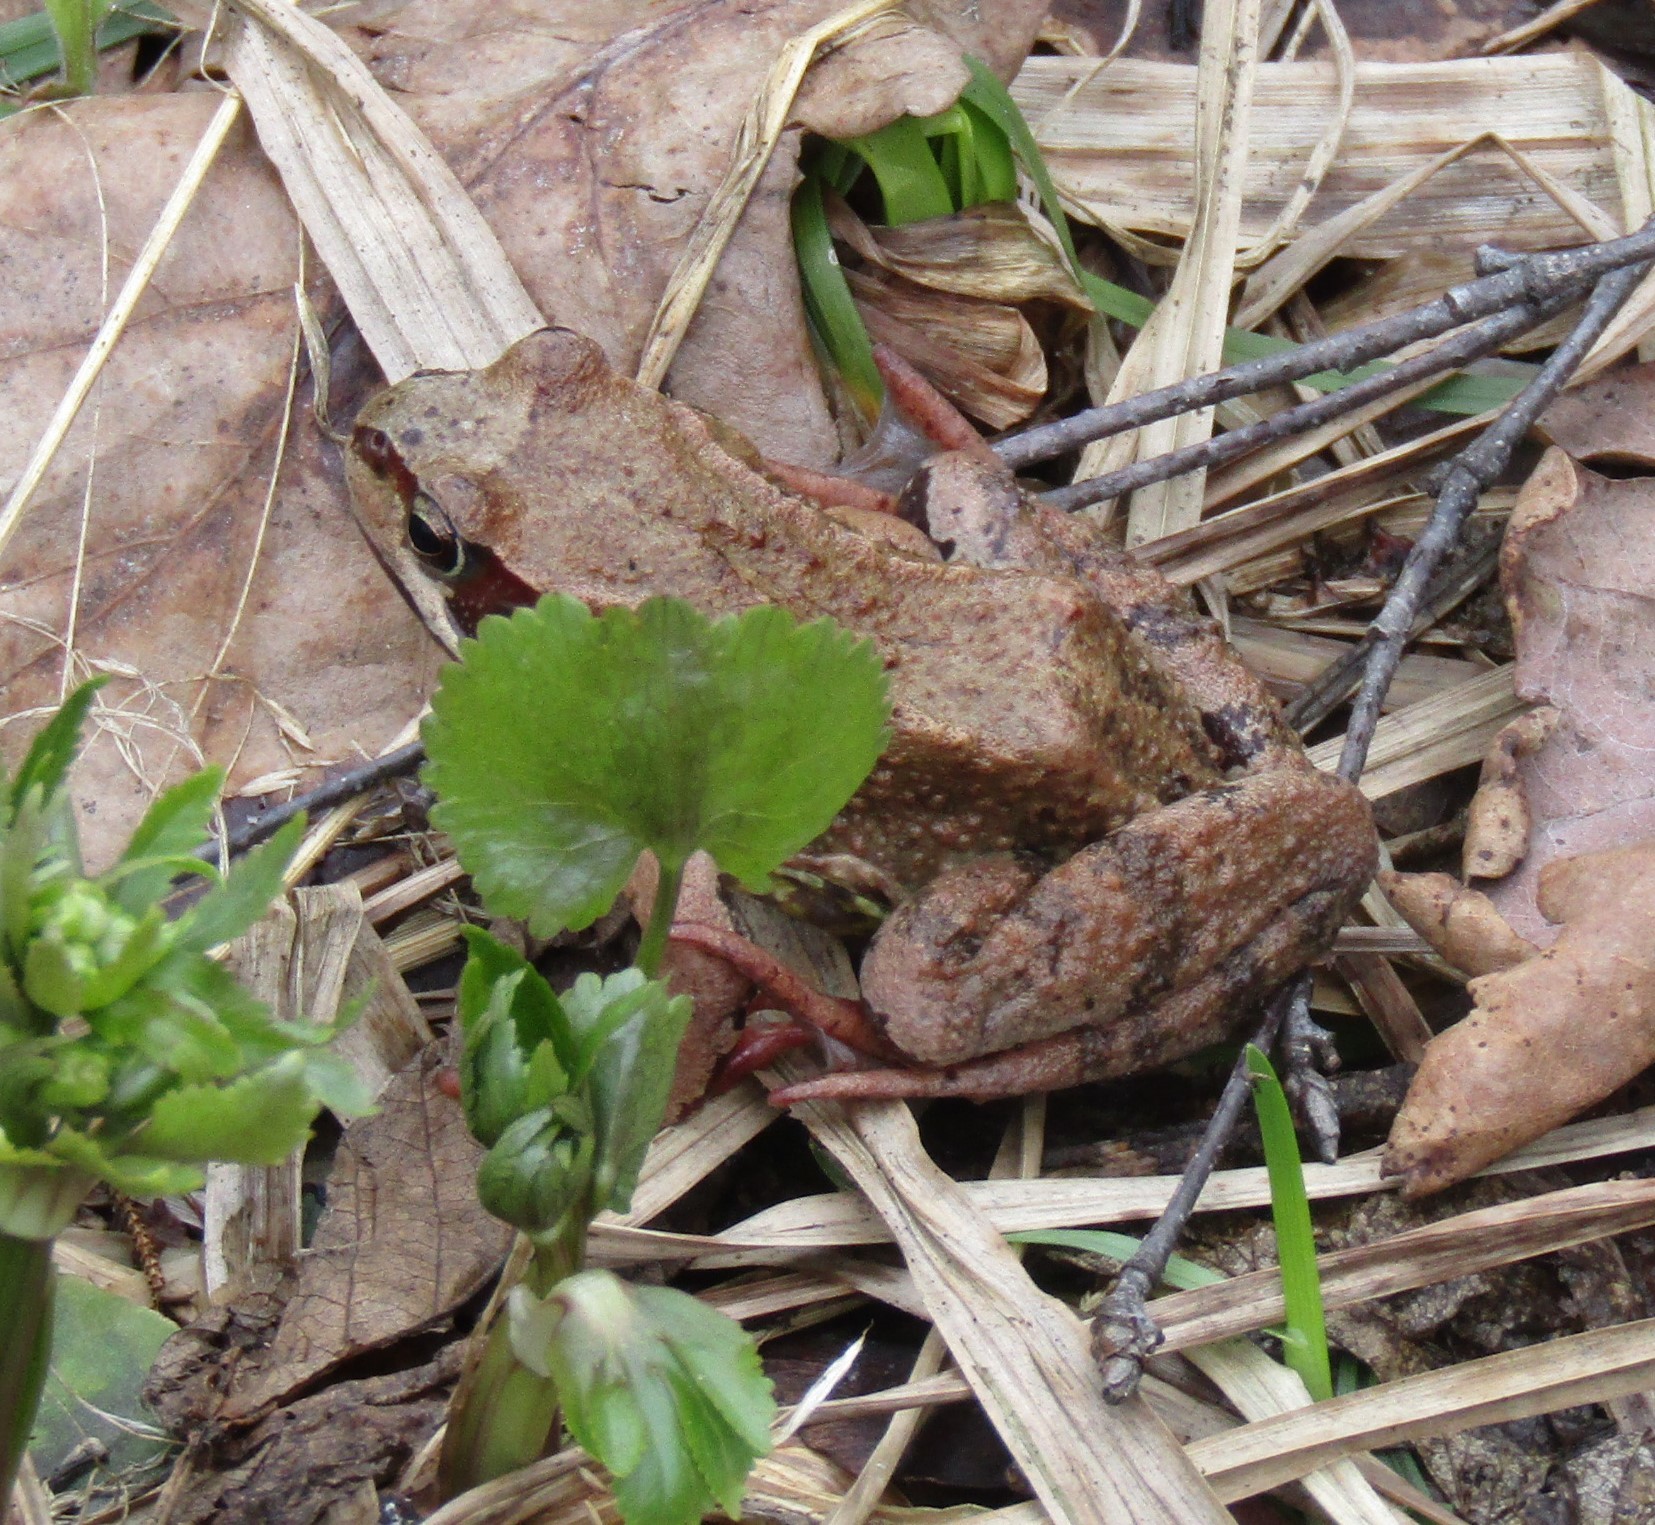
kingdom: Animalia
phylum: Chordata
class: Amphibia
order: Anura
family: Ranidae
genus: Rana
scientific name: Rana temporaria
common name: Common frog
